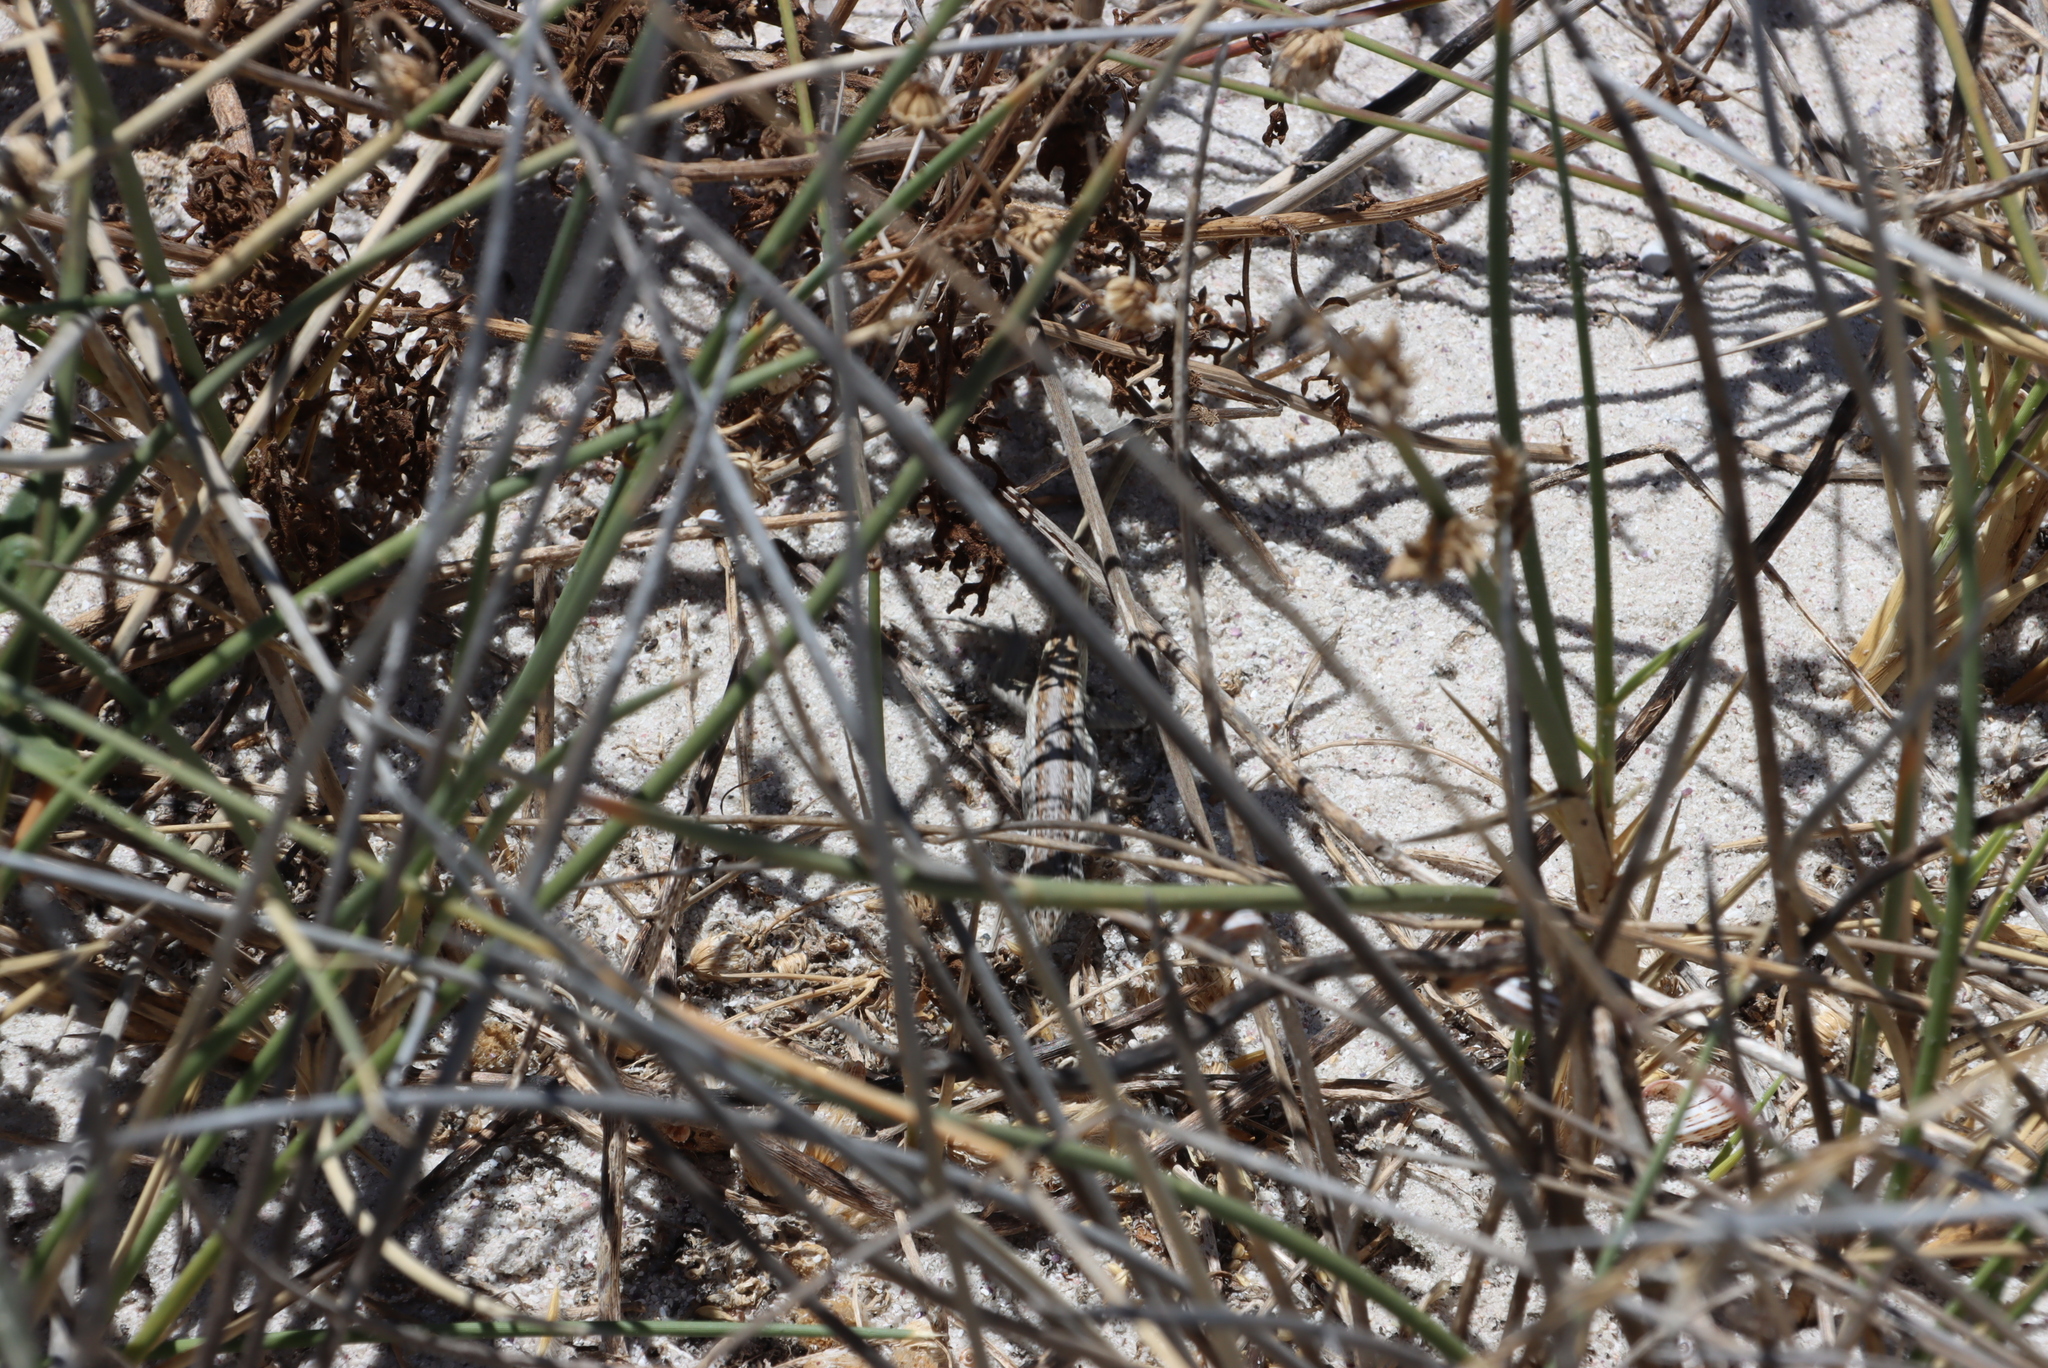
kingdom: Animalia
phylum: Chordata
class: Squamata
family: Lacertidae
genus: Meroles
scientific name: Meroles knoxii
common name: Knox's desert lizard
